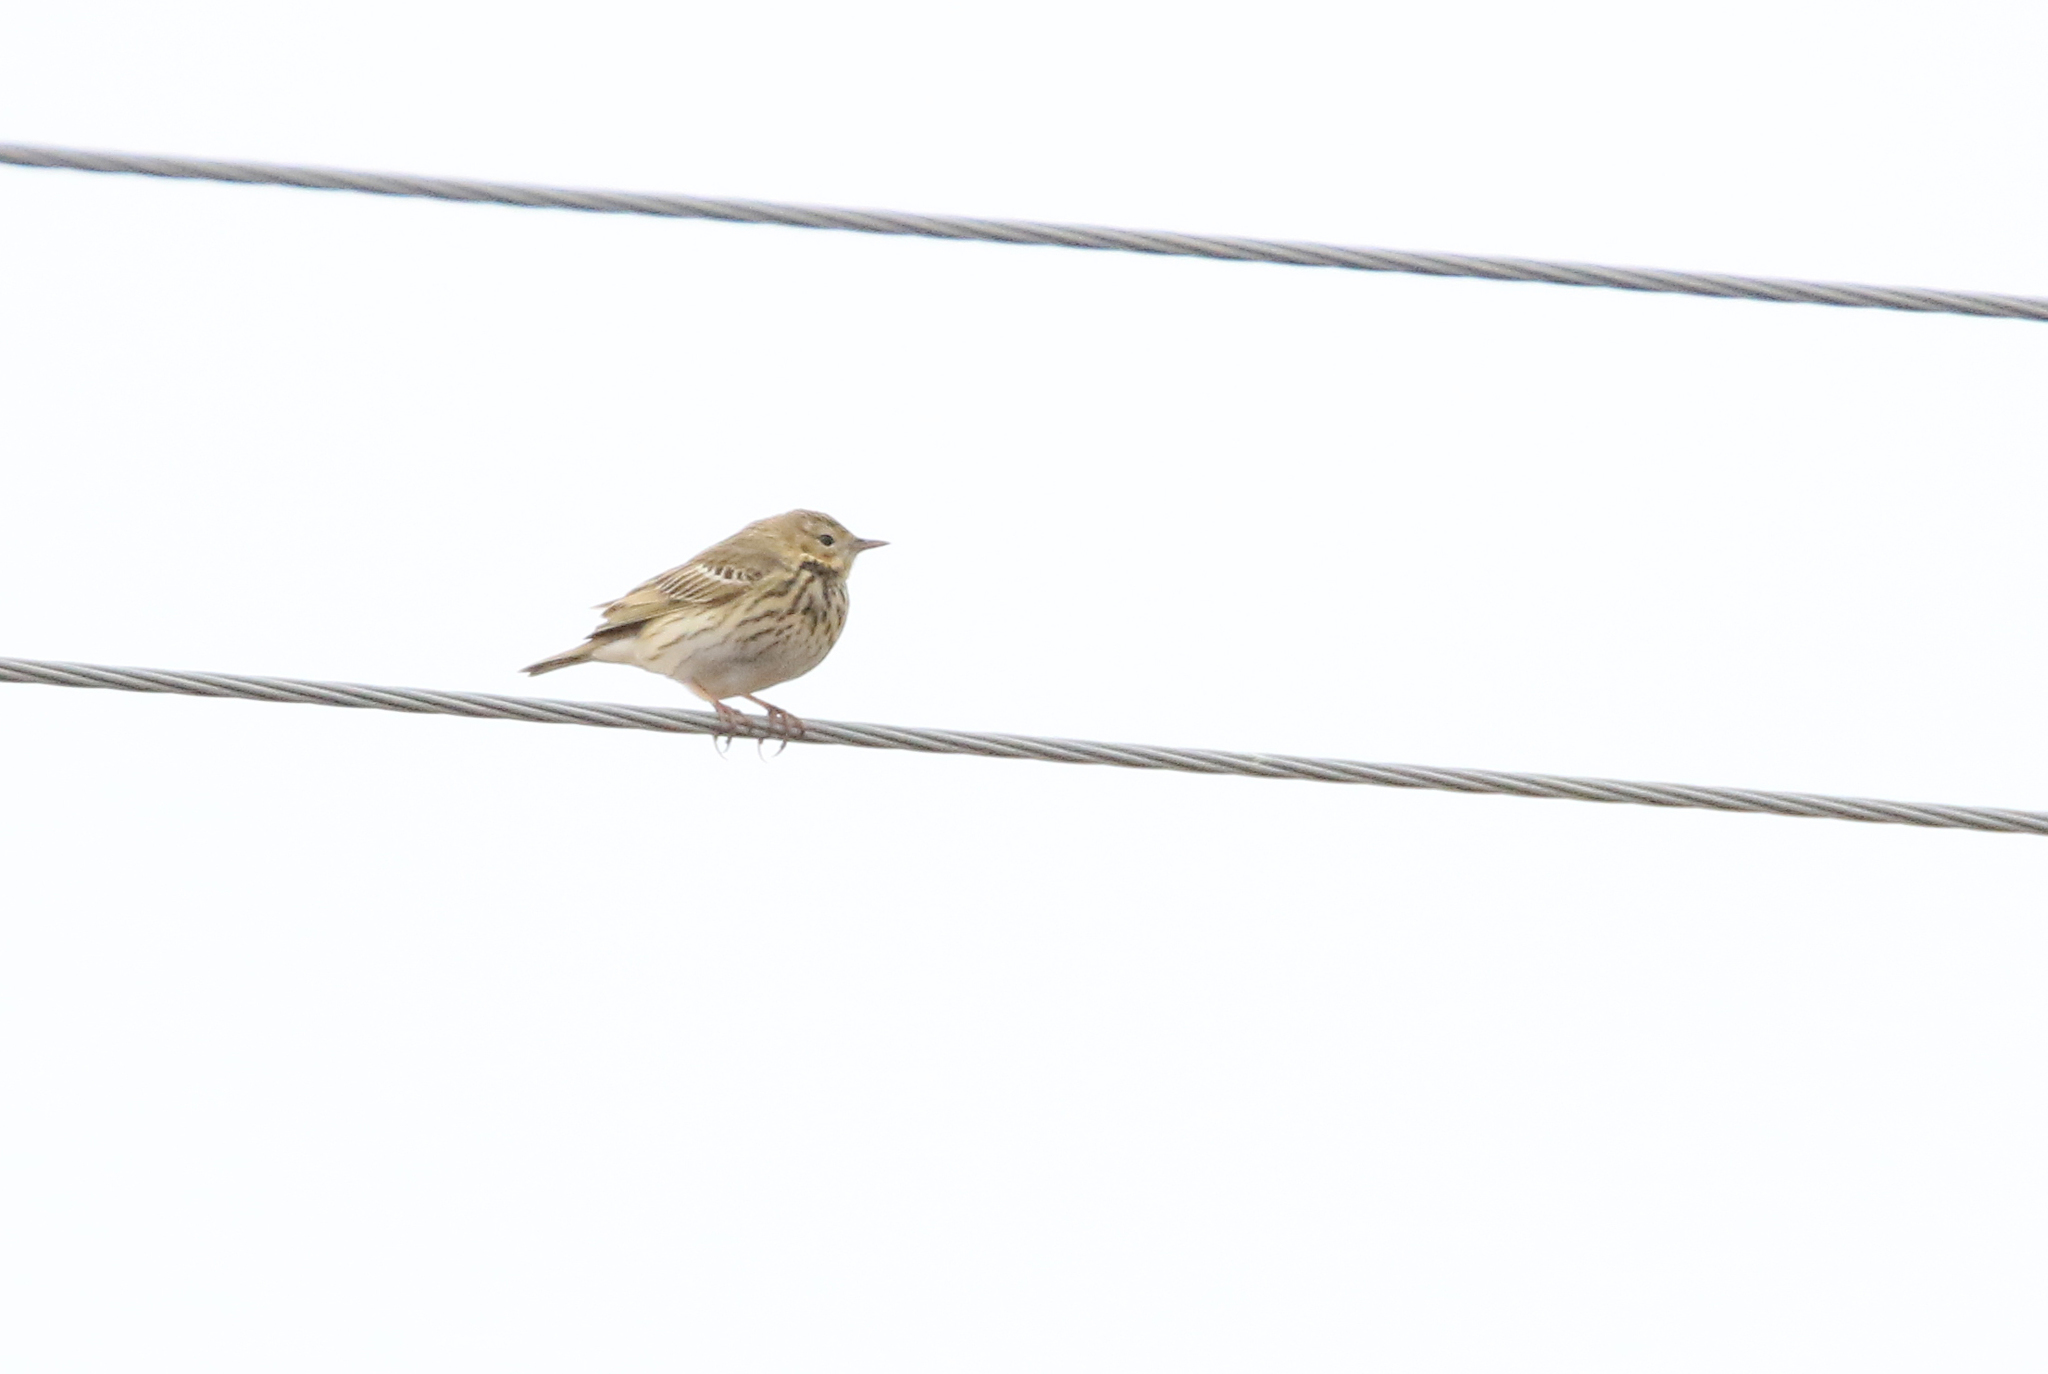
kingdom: Animalia
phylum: Chordata
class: Aves
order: Passeriformes
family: Motacillidae
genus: Anthus
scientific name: Anthus trivialis
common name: Tree pipit
